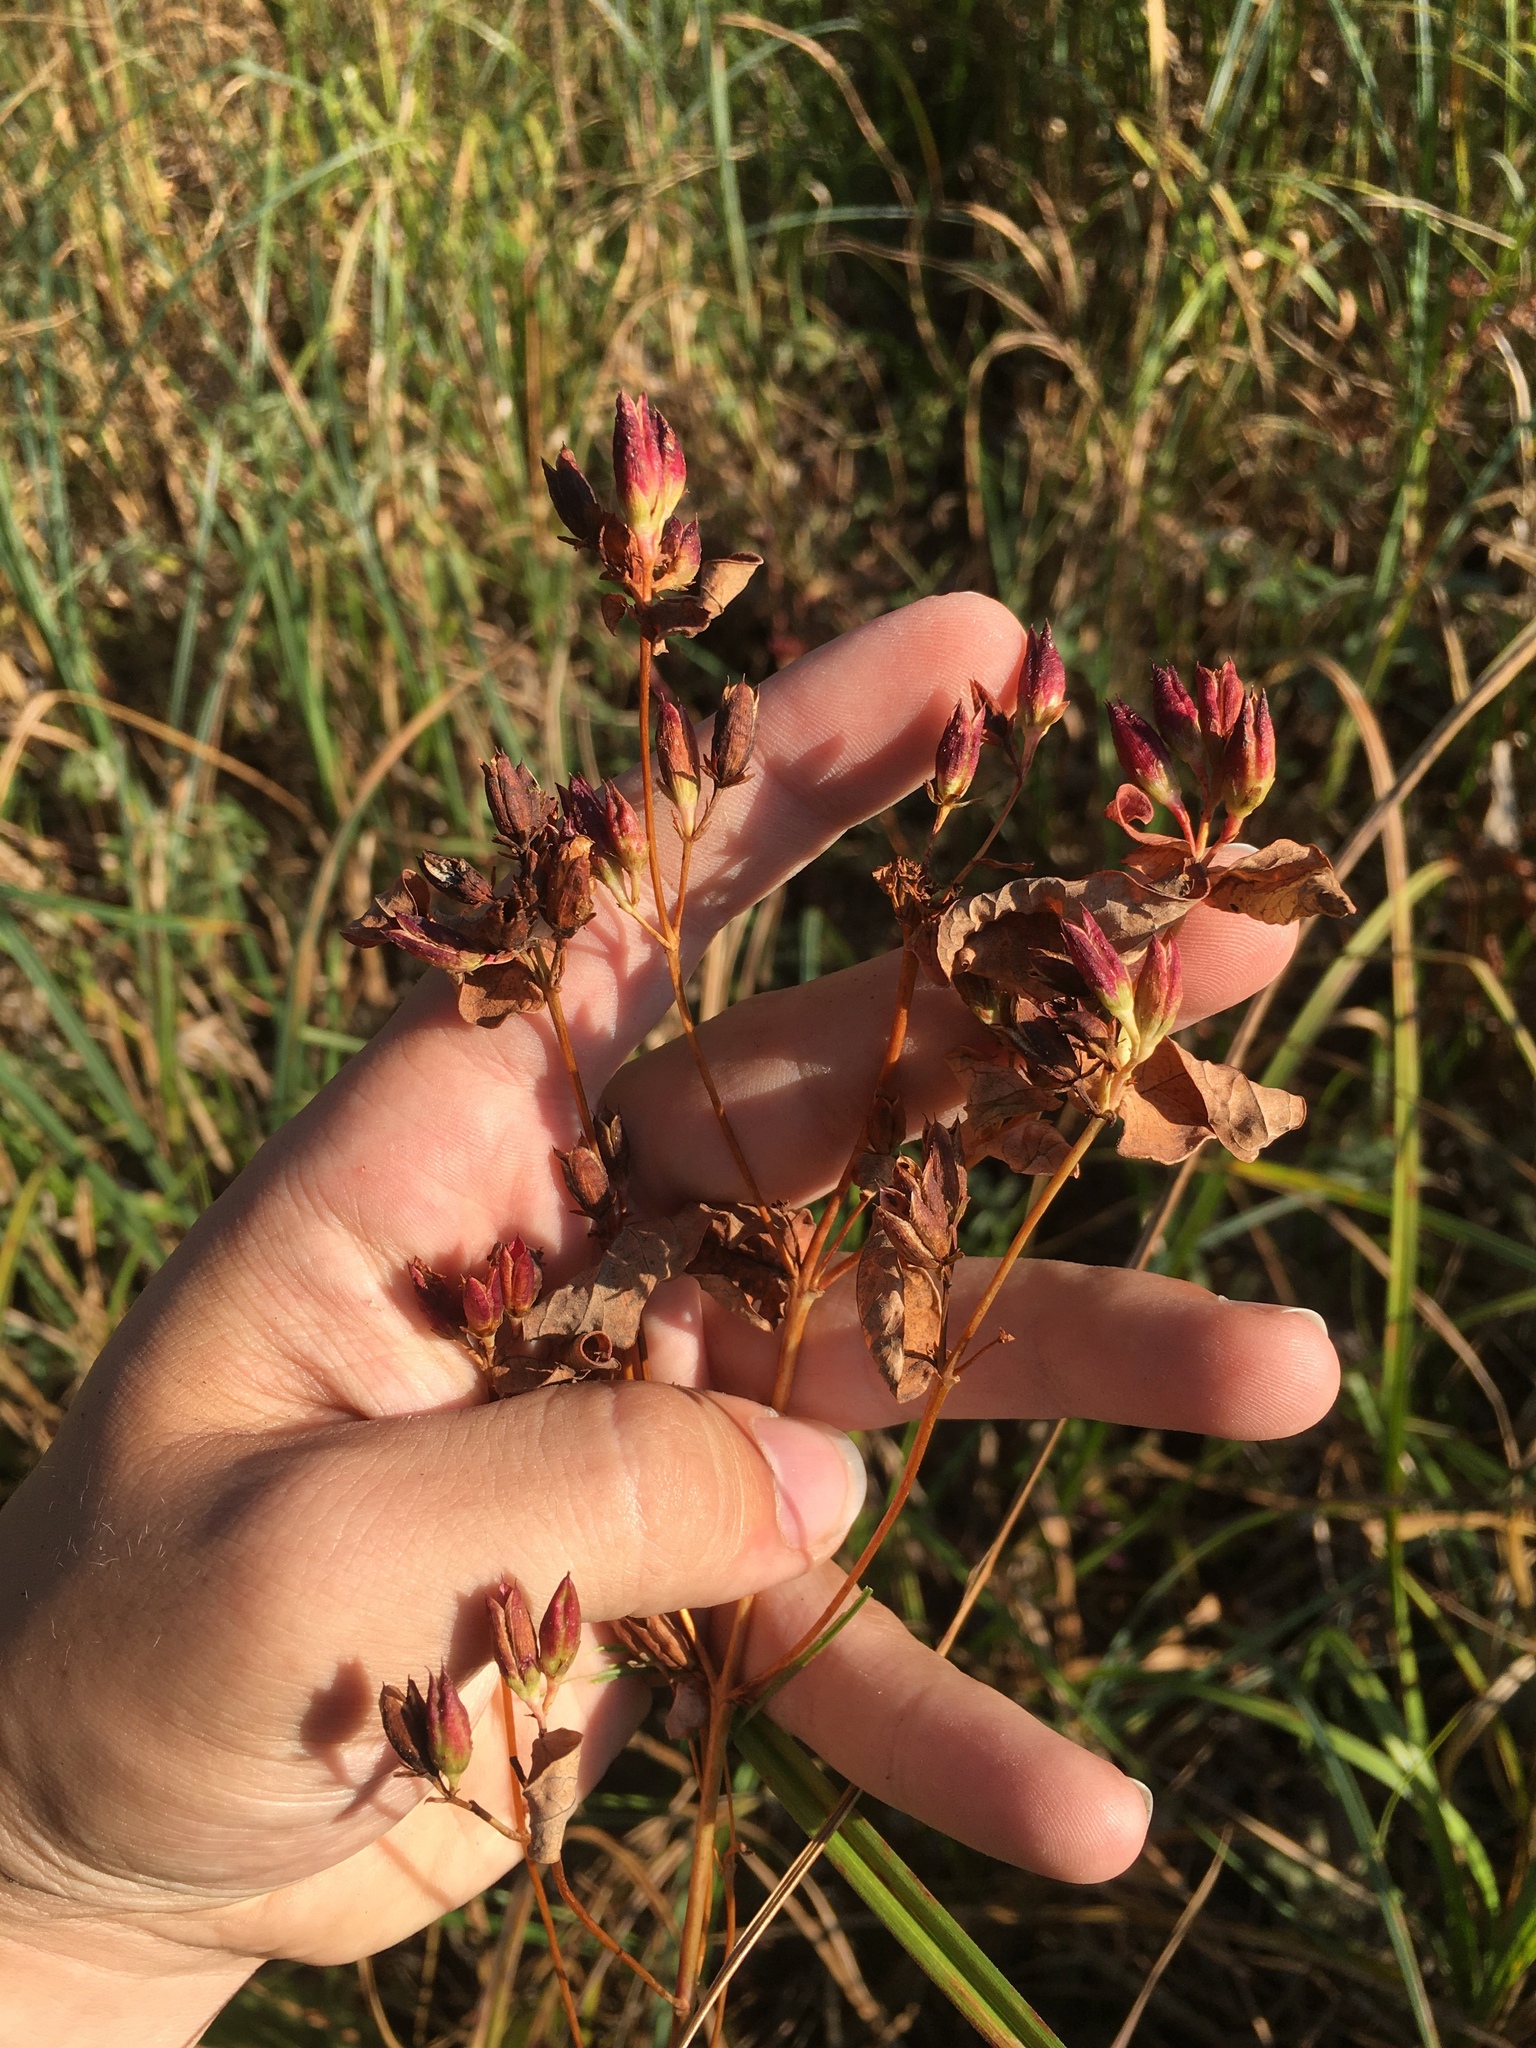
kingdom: Plantae
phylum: Tracheophyta
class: Magnoliopsida
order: Malpighiales
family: Hypericaceae
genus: Triadenum
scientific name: Triadenum fraseri
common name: Fraser's marsh st. johnswort
